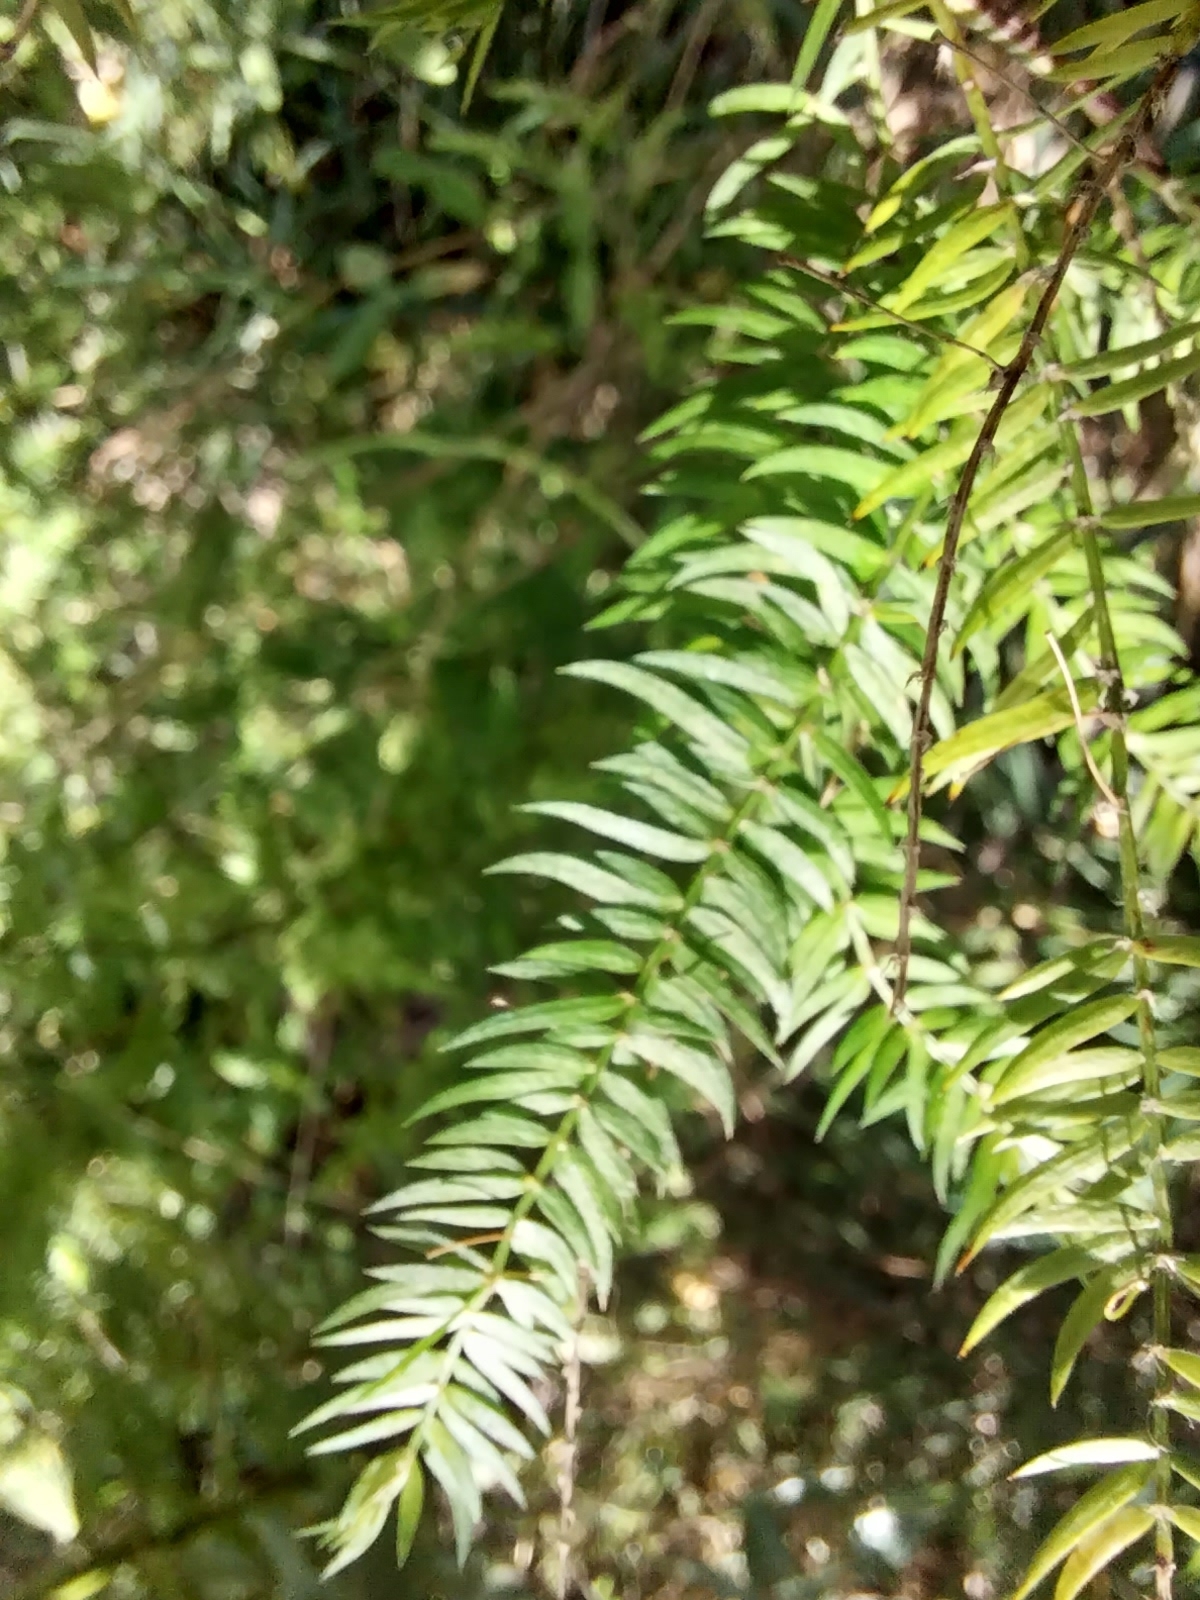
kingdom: Plantae
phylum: Tracheophyta
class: Liliopsida
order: Asparagales
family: Asparagaceae
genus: Asparagus
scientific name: Asparagus scandens
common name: Asparagus-fern
